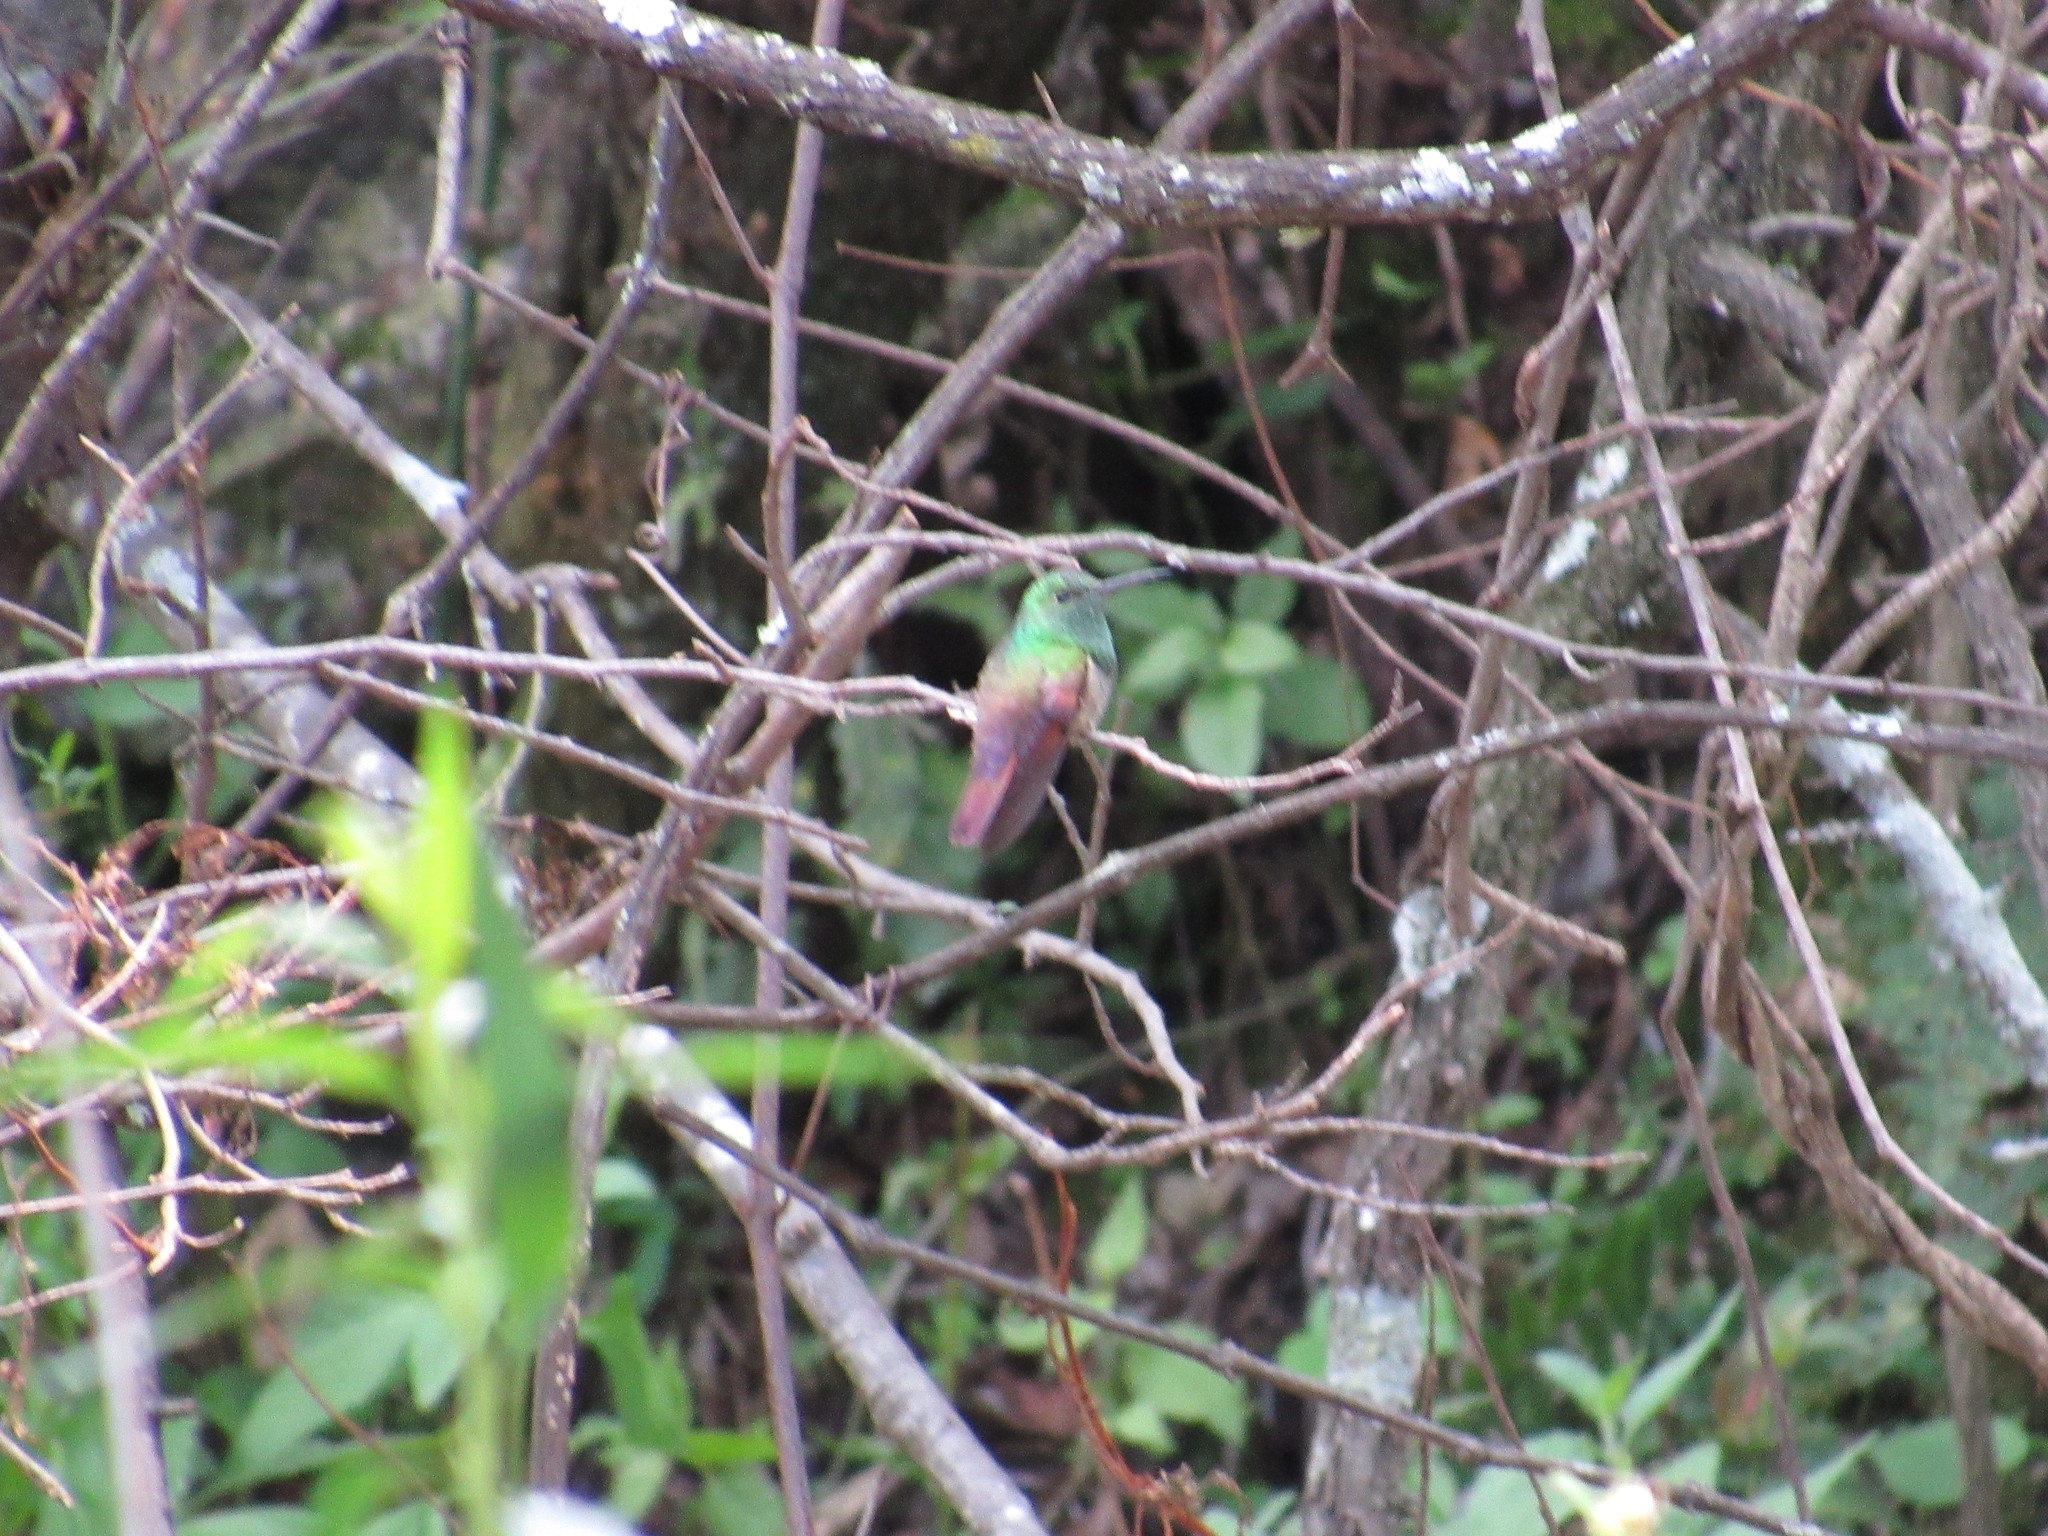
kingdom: Animalia
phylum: Chordata
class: Aves
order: Apodiformes
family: Trochilidae
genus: Saucerottia
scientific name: Saucerottia beryllina
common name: Berylline hummingbird
